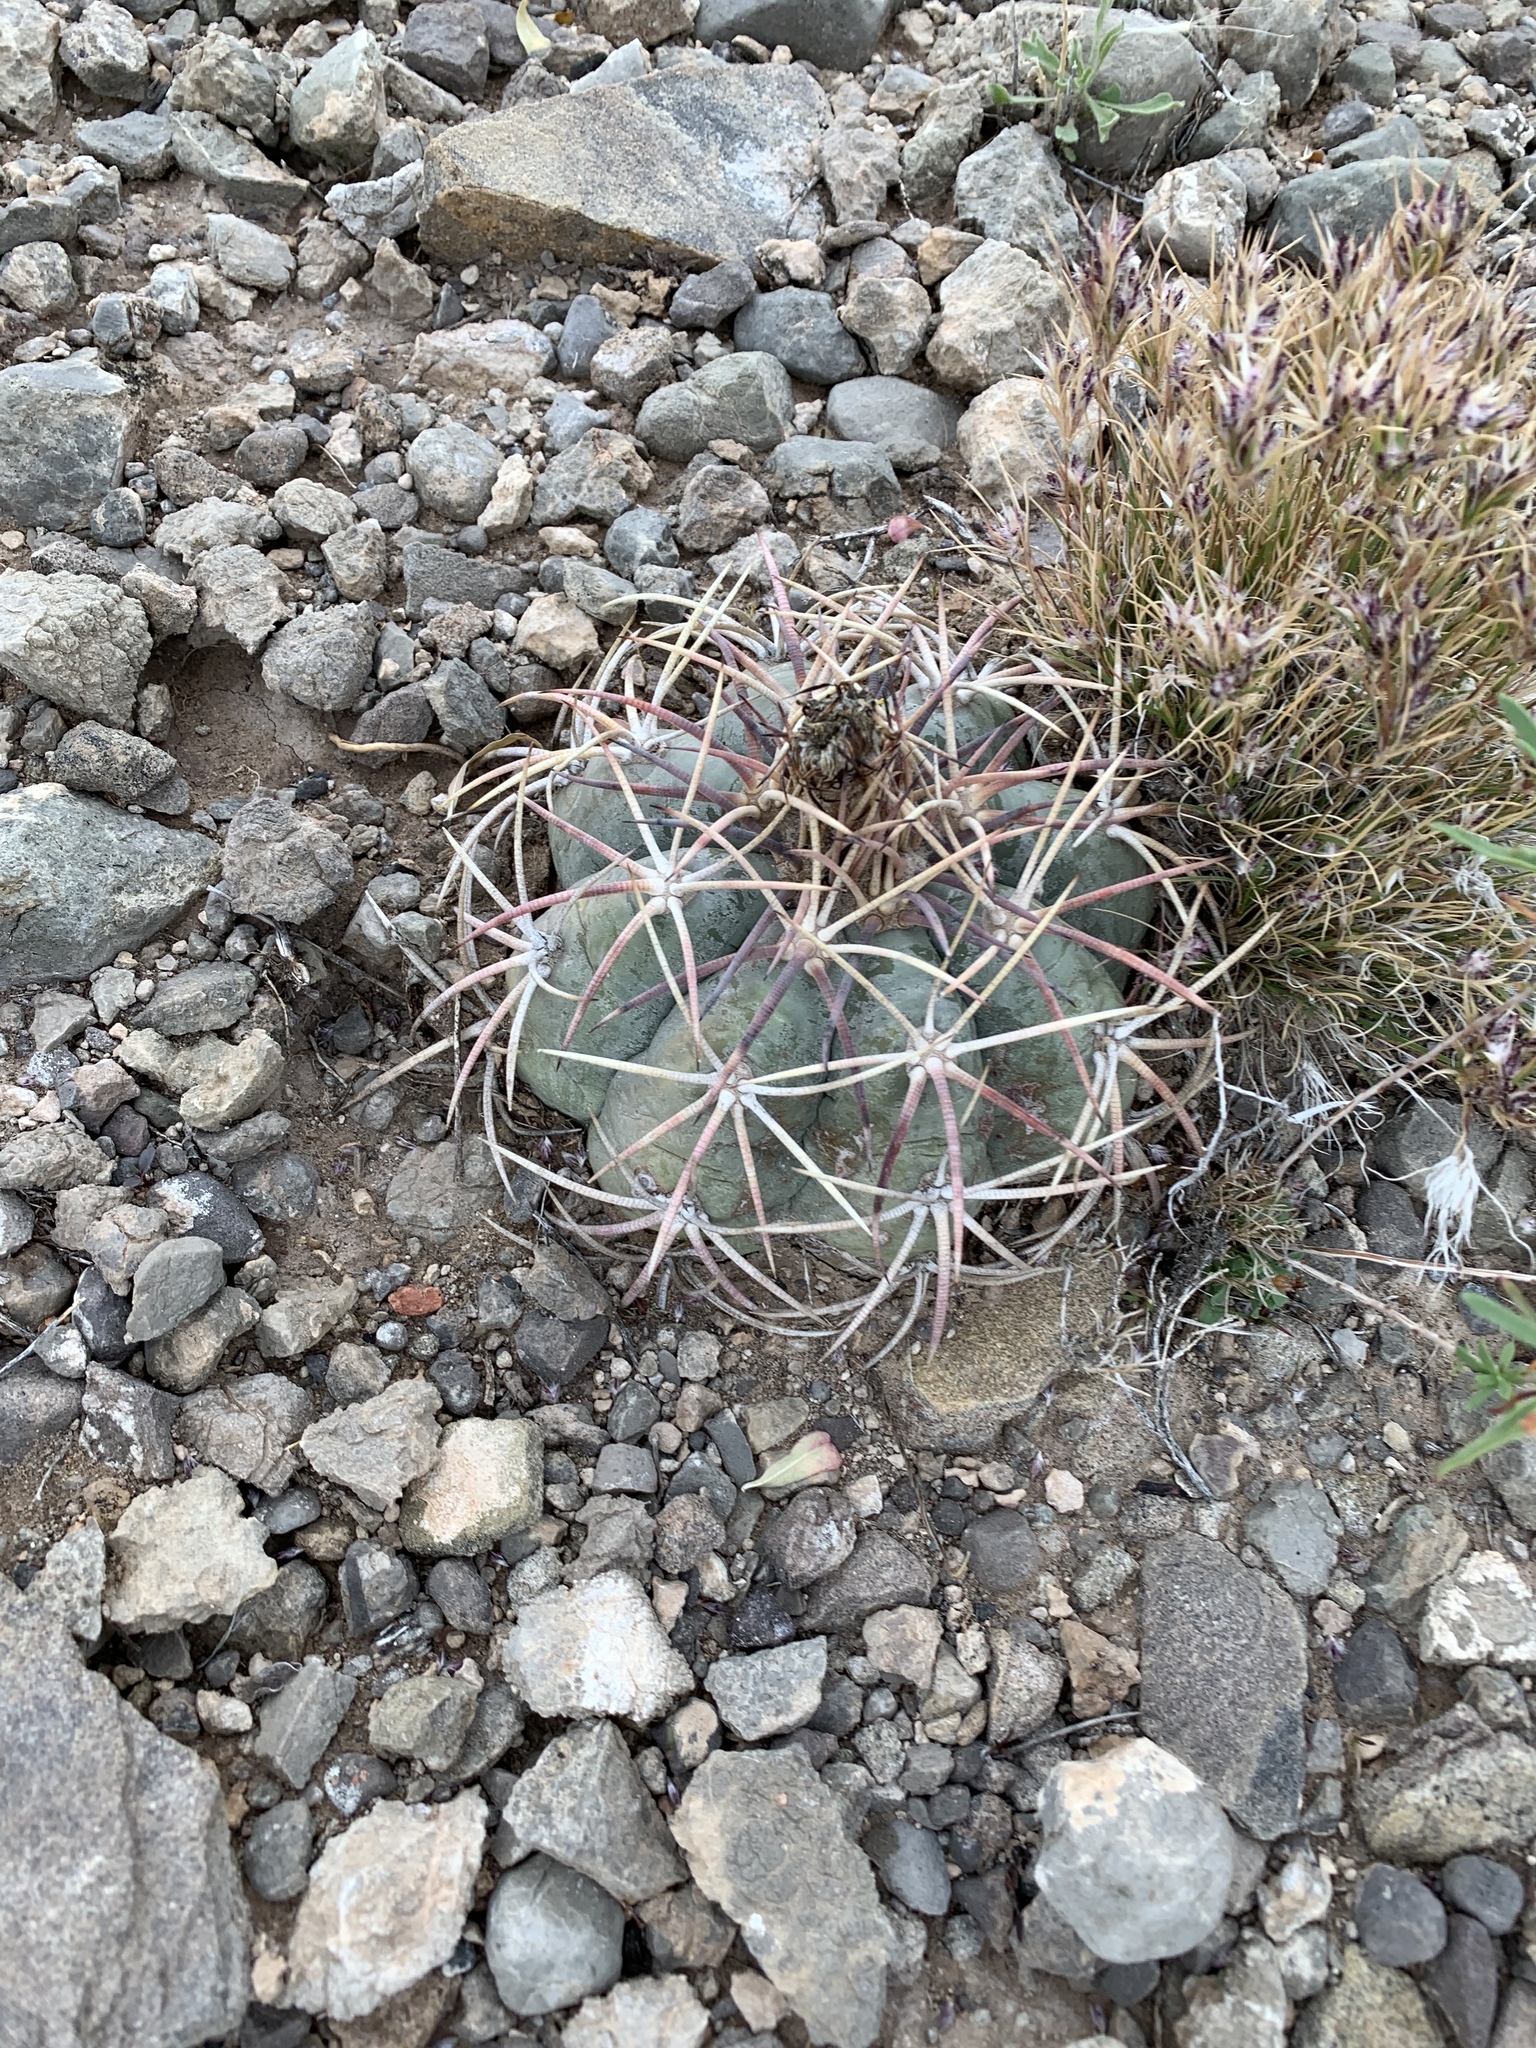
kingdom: Plantae
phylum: Tracheophyta
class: Magnoliopsida
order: Caryophyllales
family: Cactaceae
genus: Echinocactus
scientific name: Echinocactus horizonthalonius
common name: Devilshead
